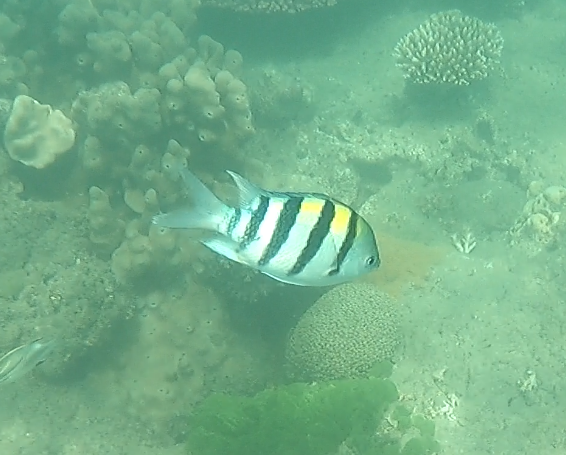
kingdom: Animalia
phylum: Chordata
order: Perciformes
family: Pomacentridae
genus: Abudefduf
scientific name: Abudefduf vaigiensis
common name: Indo-pacific sergeant
